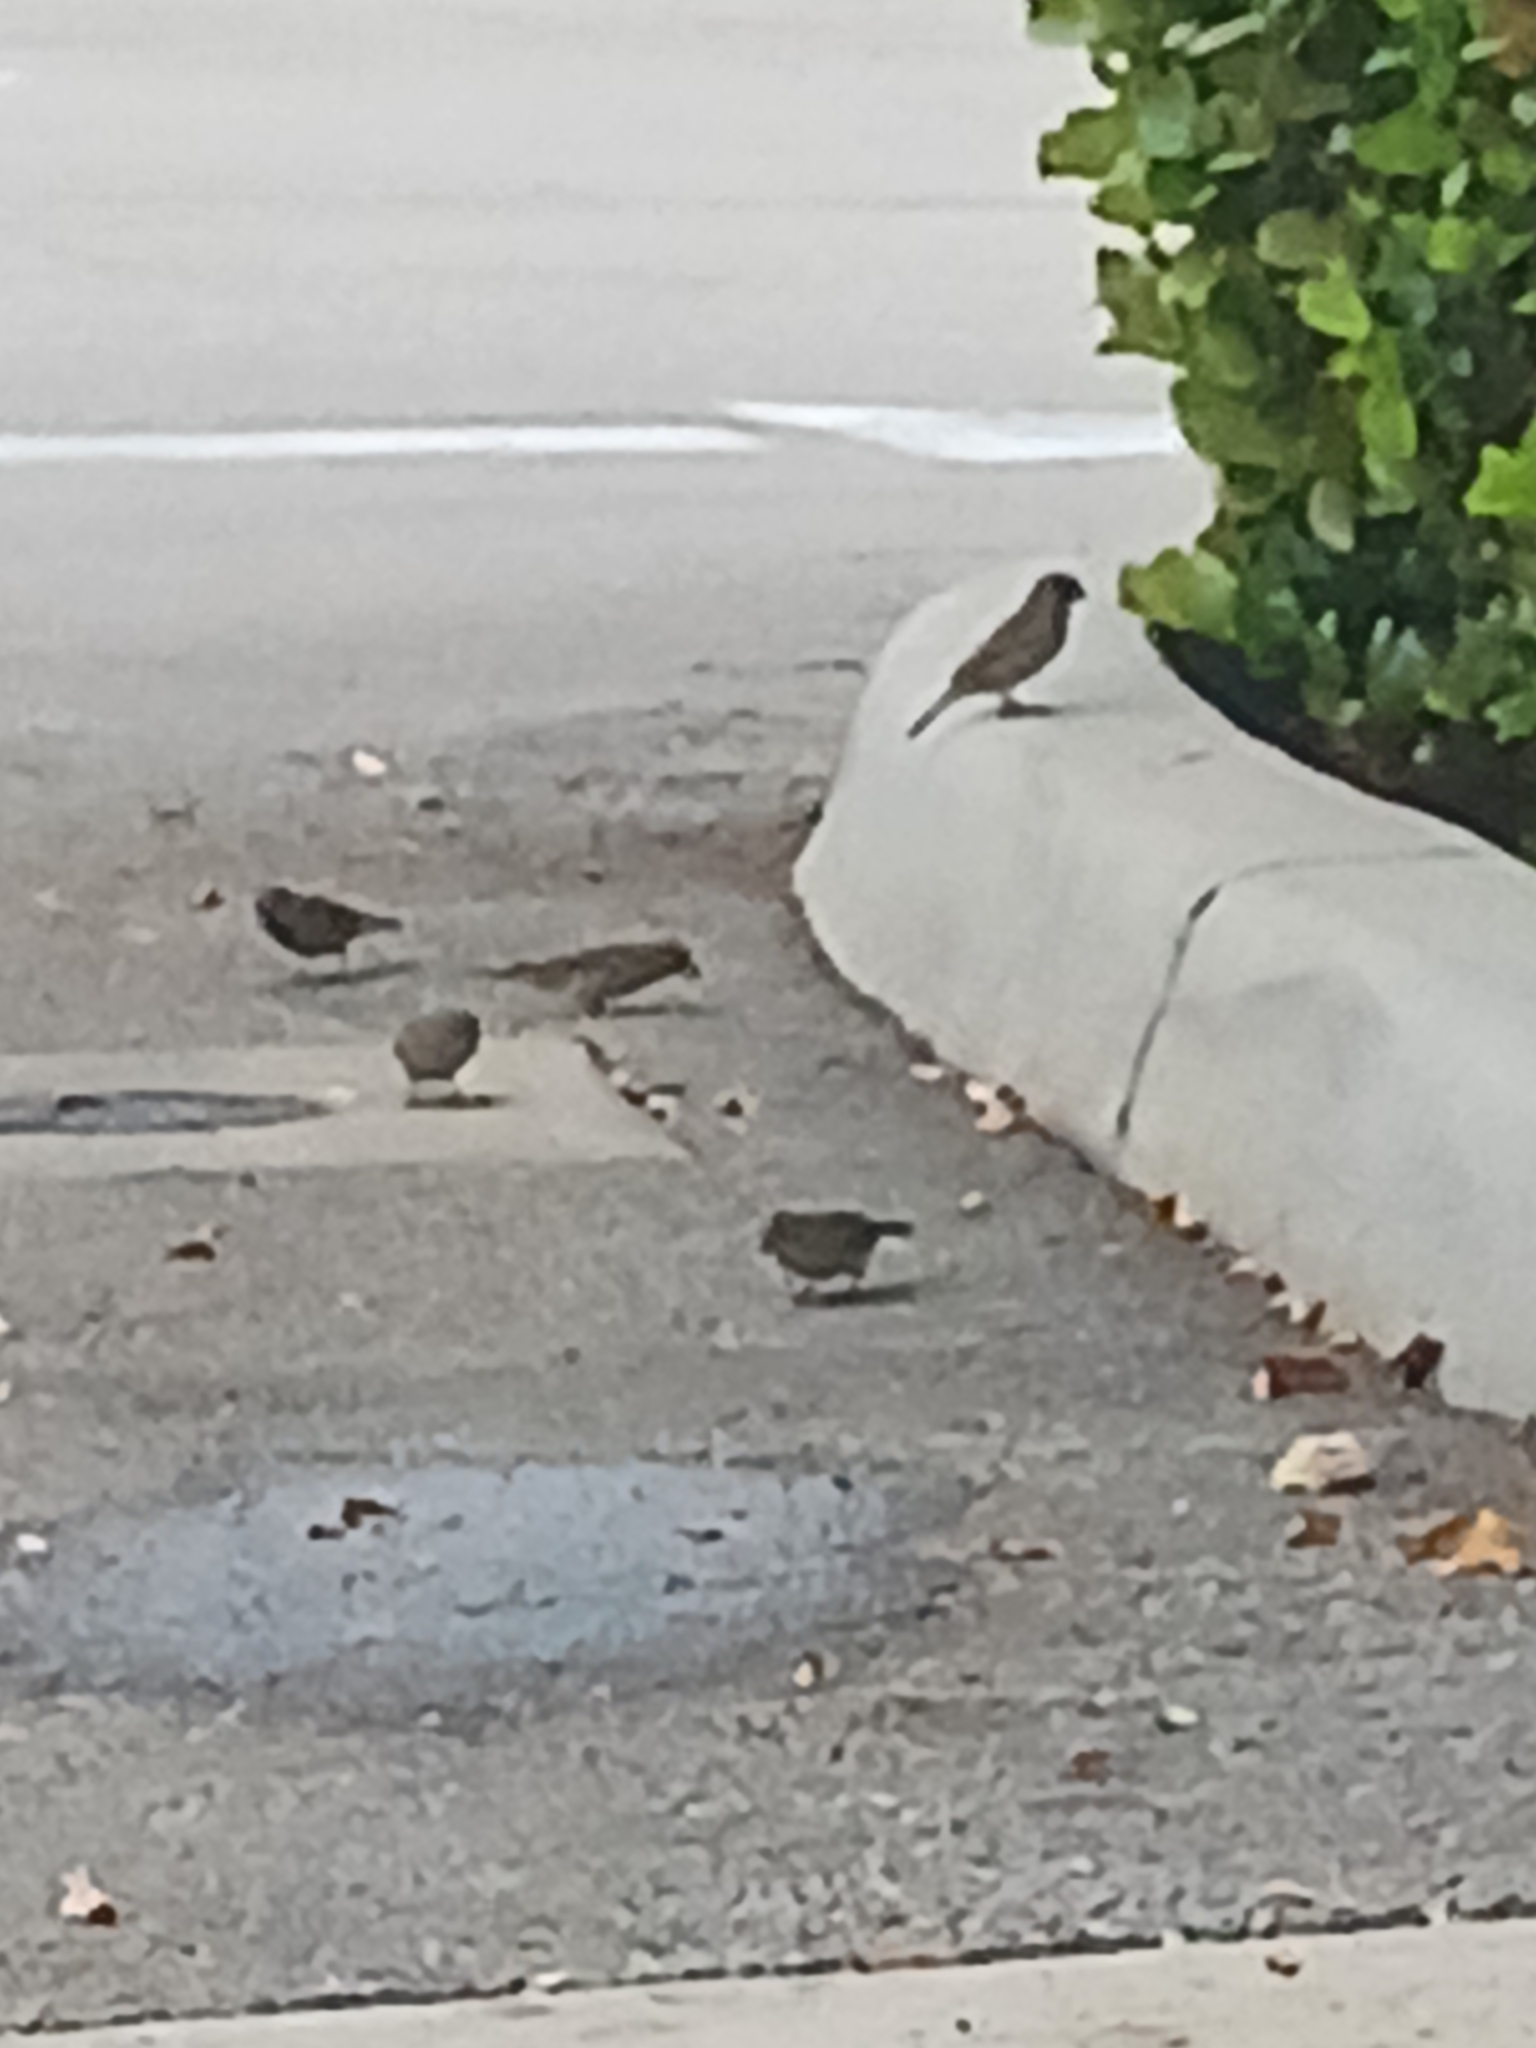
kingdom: Animalia
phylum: Chordata
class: Aves
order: Passeriformes
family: Passeridae
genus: Passer
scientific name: Passer domesticus
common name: House sparrow
